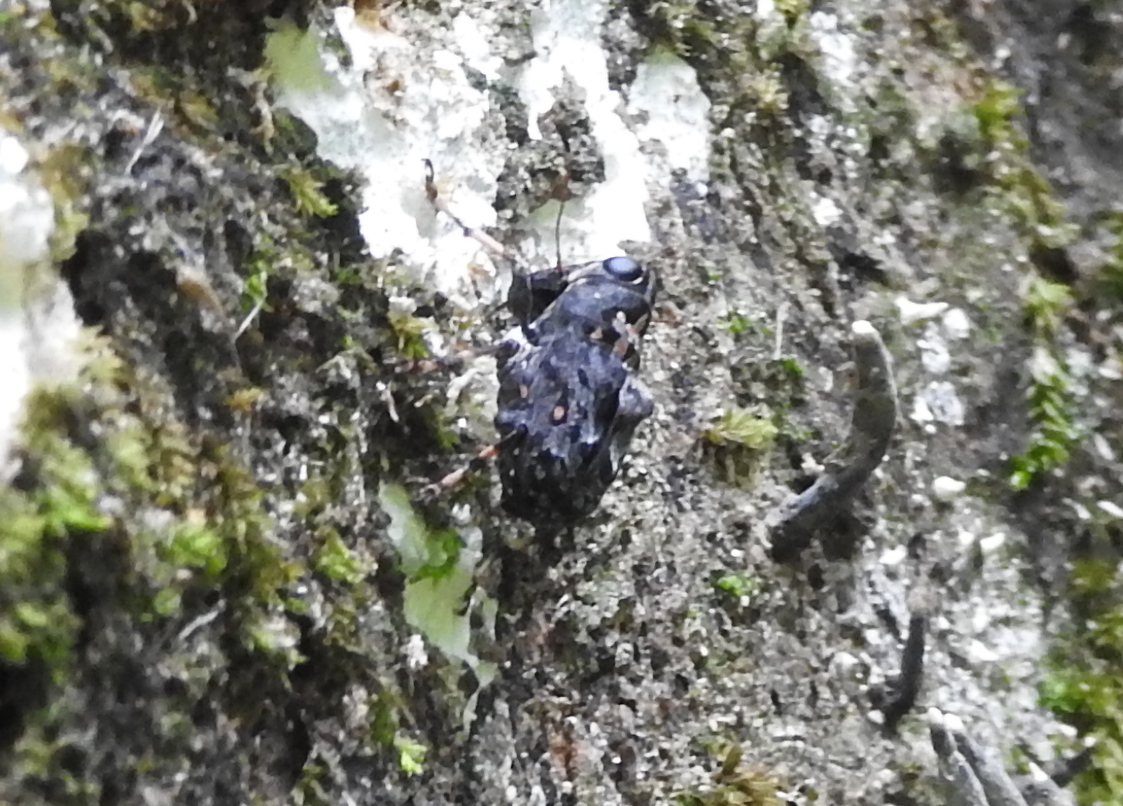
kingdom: Animalia
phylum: Arthropoda
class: Insecta
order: Coleoptera
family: Anthribidae
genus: Cedus
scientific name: Cedus tuberculatus
